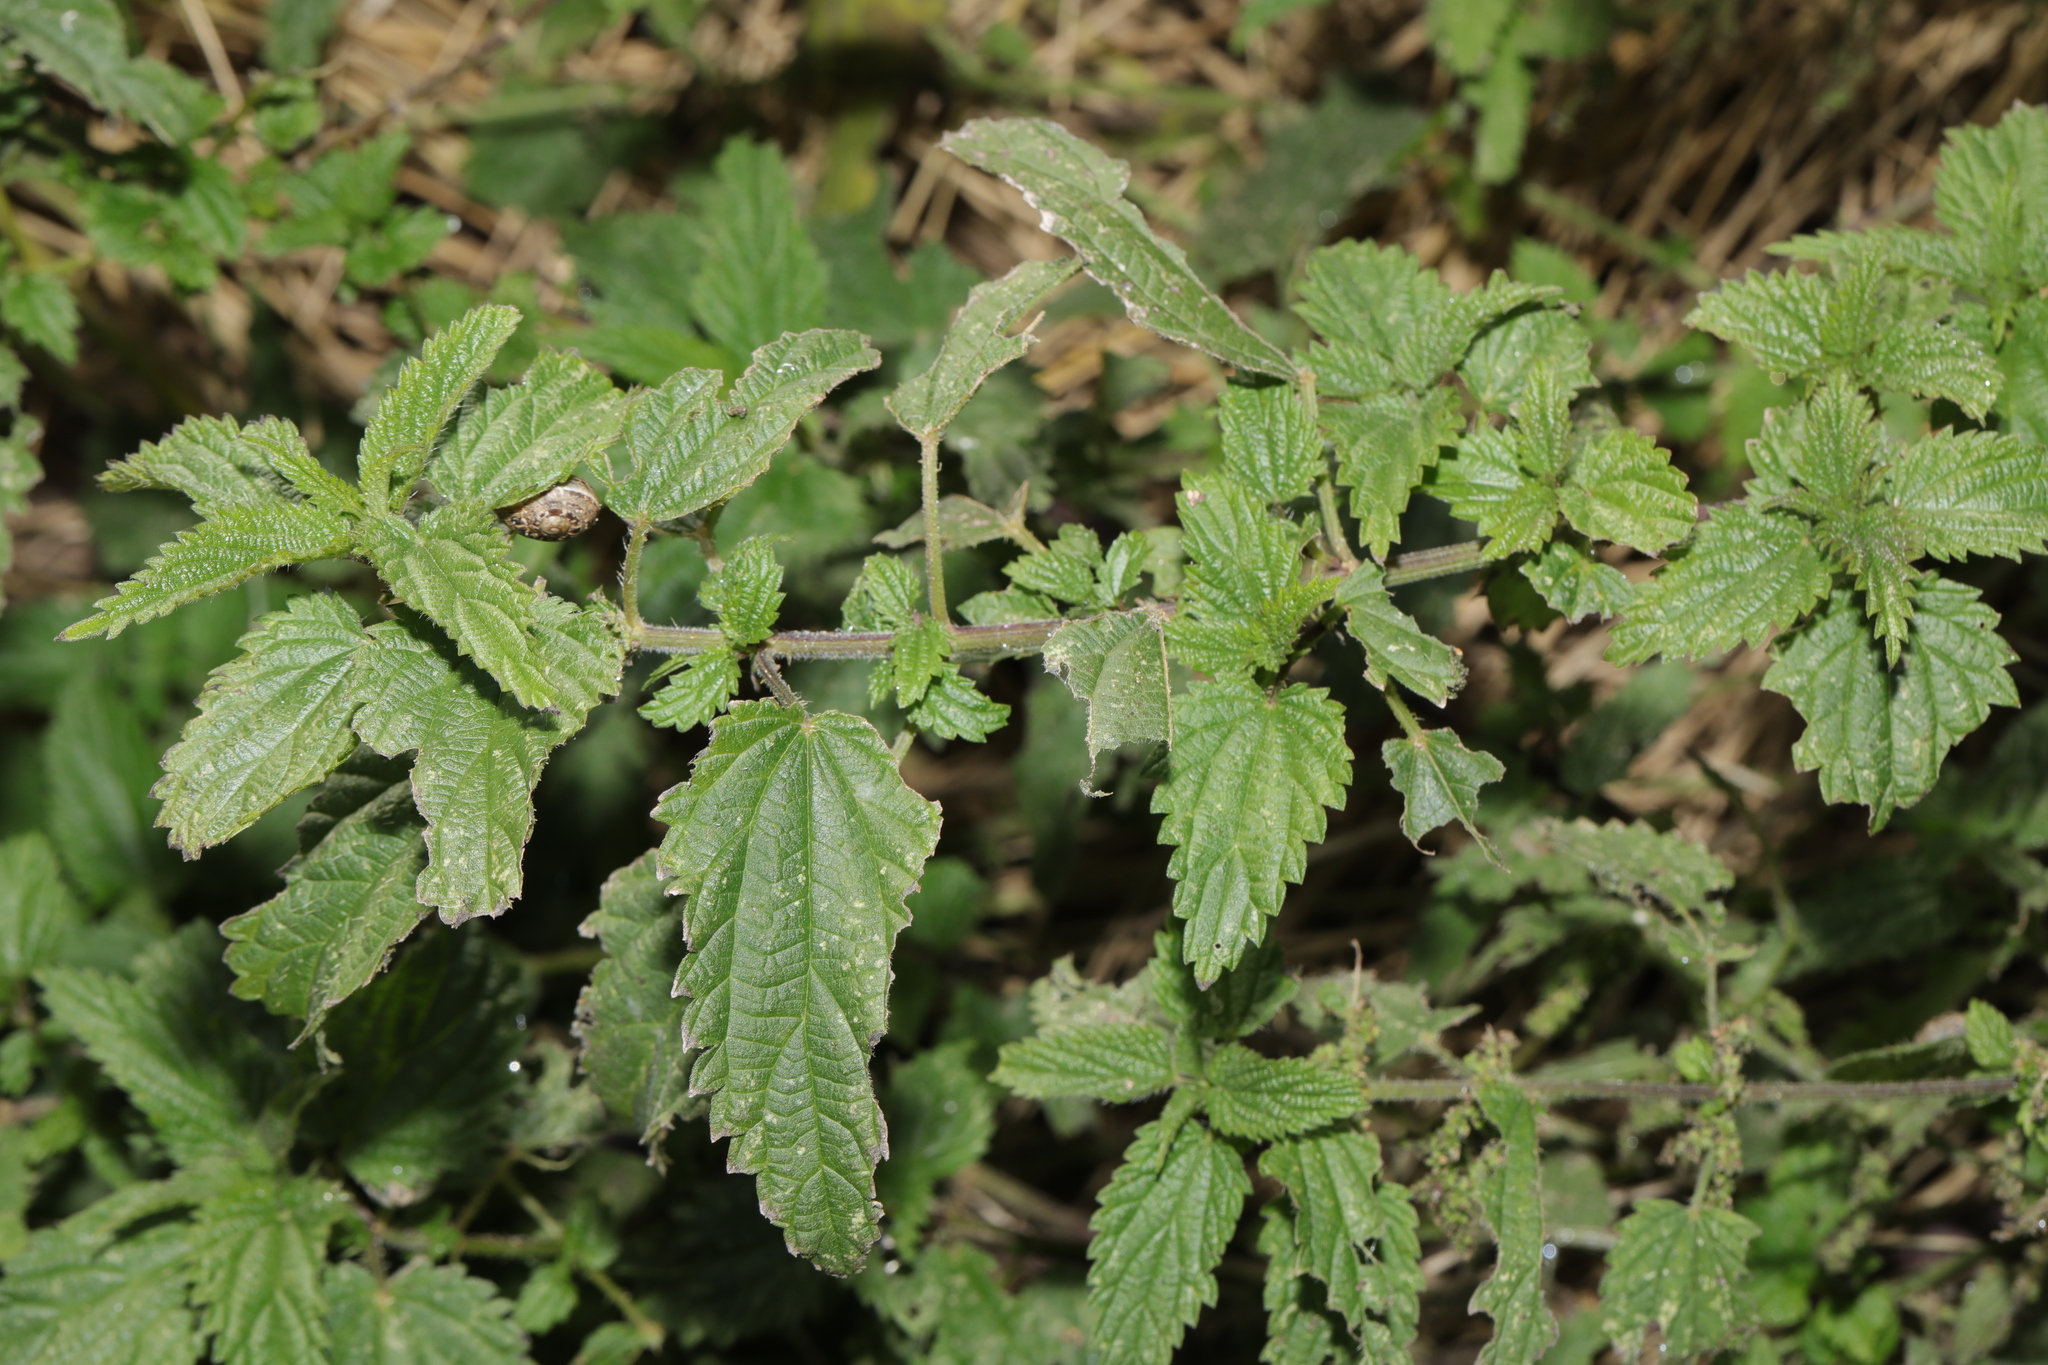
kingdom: Plantae
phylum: Tracheophyta
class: Magnoliopsida
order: Rosales
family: Urticaceae
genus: Urtica
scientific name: Urtica dioica
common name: Common nettle
